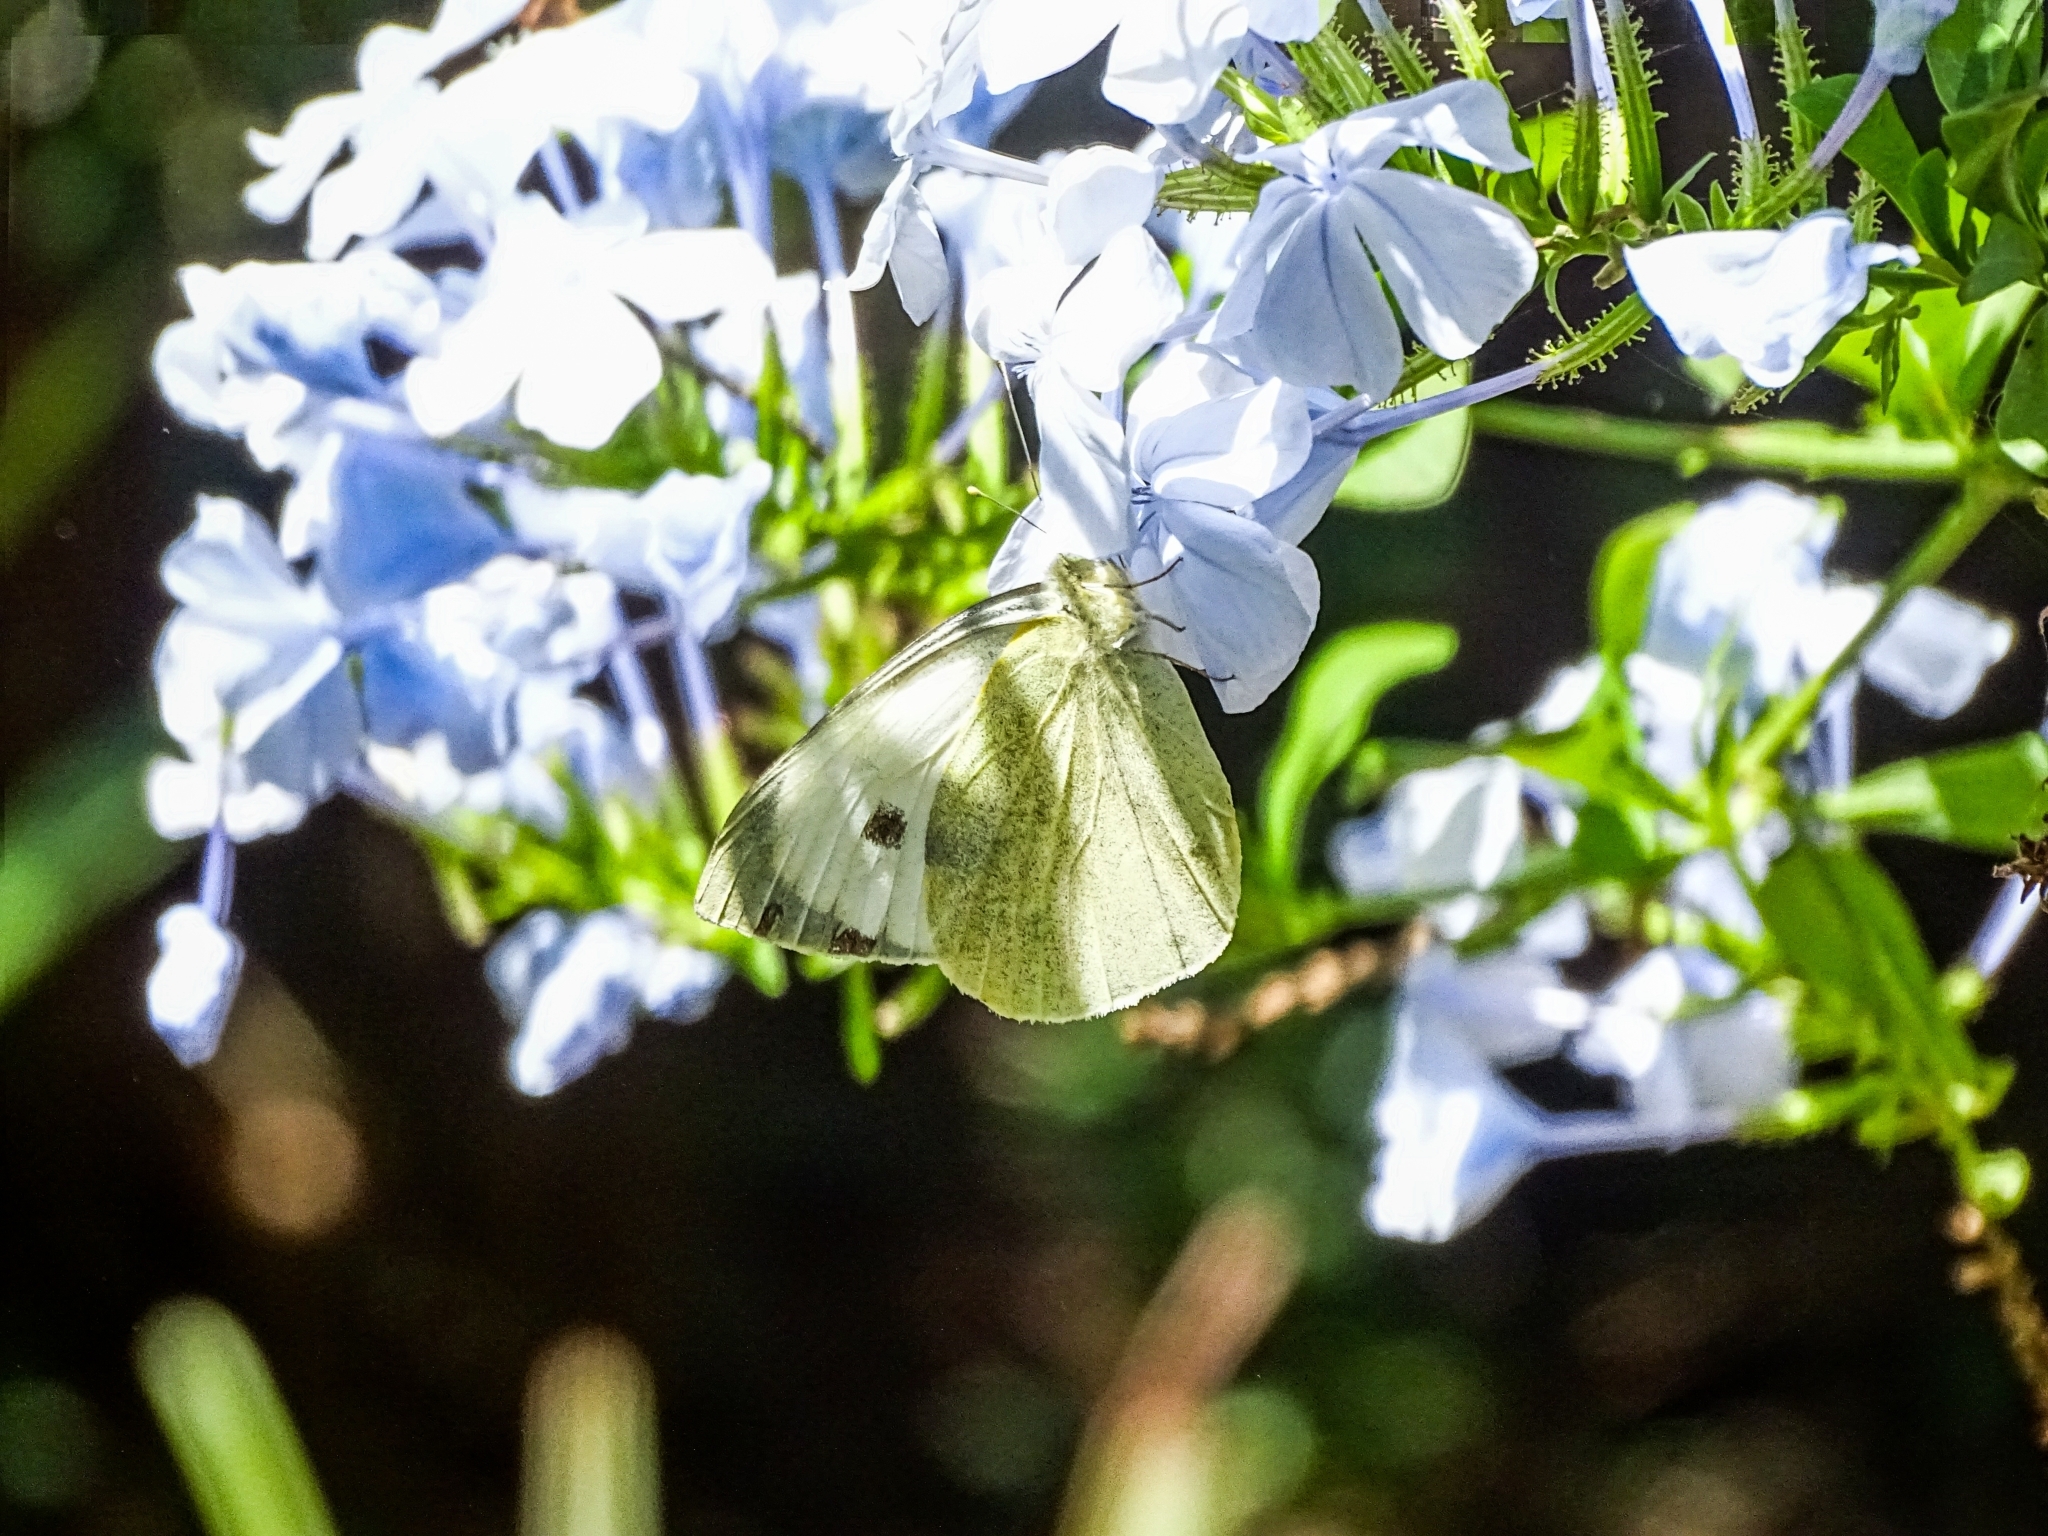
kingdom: Animalia
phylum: Arthropoda
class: Insecta
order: Lepidoptera
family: Pieridae
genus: Pieris
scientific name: Pieris brassicae
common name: Large white
